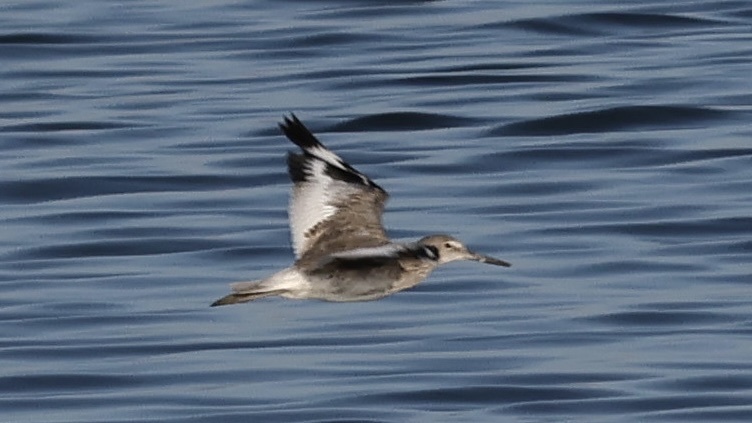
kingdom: Animalia
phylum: Chordata
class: Aves
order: Charadriiformes
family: Scolopacidae
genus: Tringa
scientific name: Tringa semipalmata
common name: Willet
